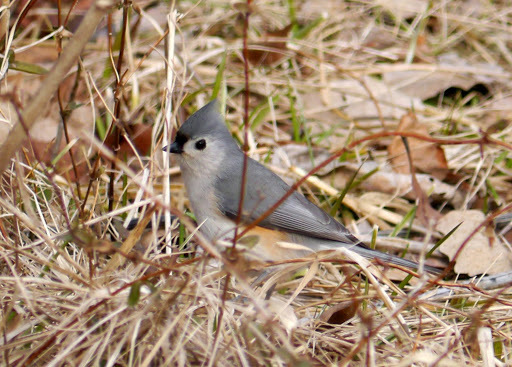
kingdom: Animalia
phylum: Chordata
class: Aves
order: Passeriformes
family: Paridae
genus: Baeolophus
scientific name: Baeolophus bicolor
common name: Tufted titmouse
